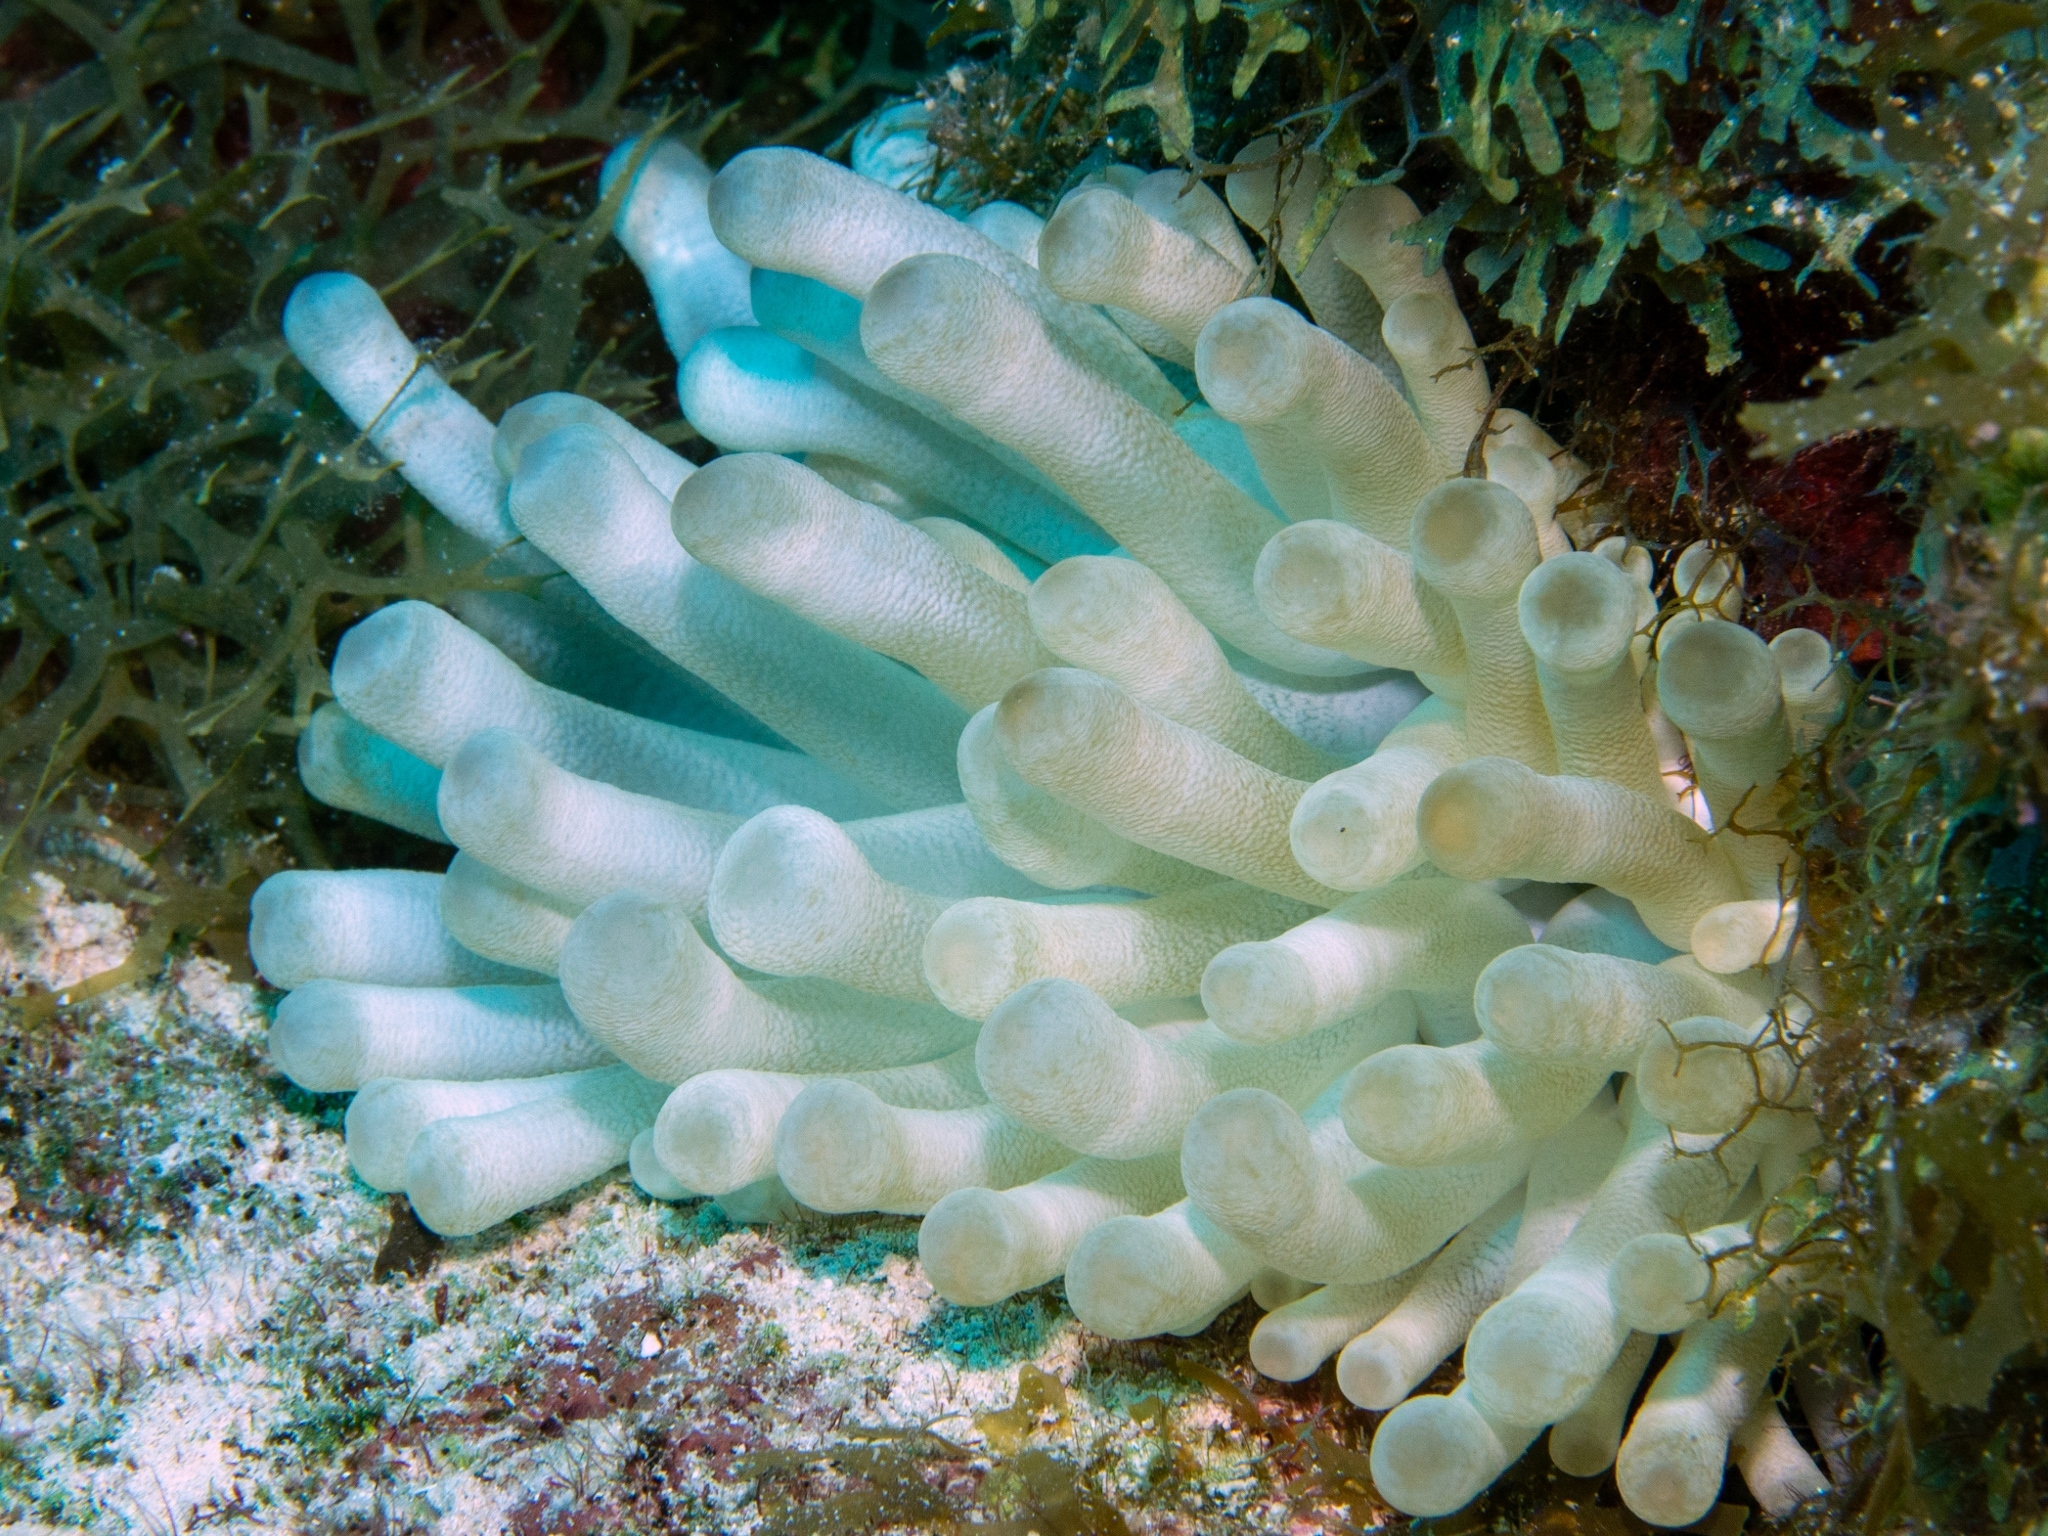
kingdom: Animalia
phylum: Cnidaria
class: Anthozoa
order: Actiniaria
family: Actiniidae
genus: Condylactis
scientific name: Condylactis gigantea
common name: Giant caribbean anemone
